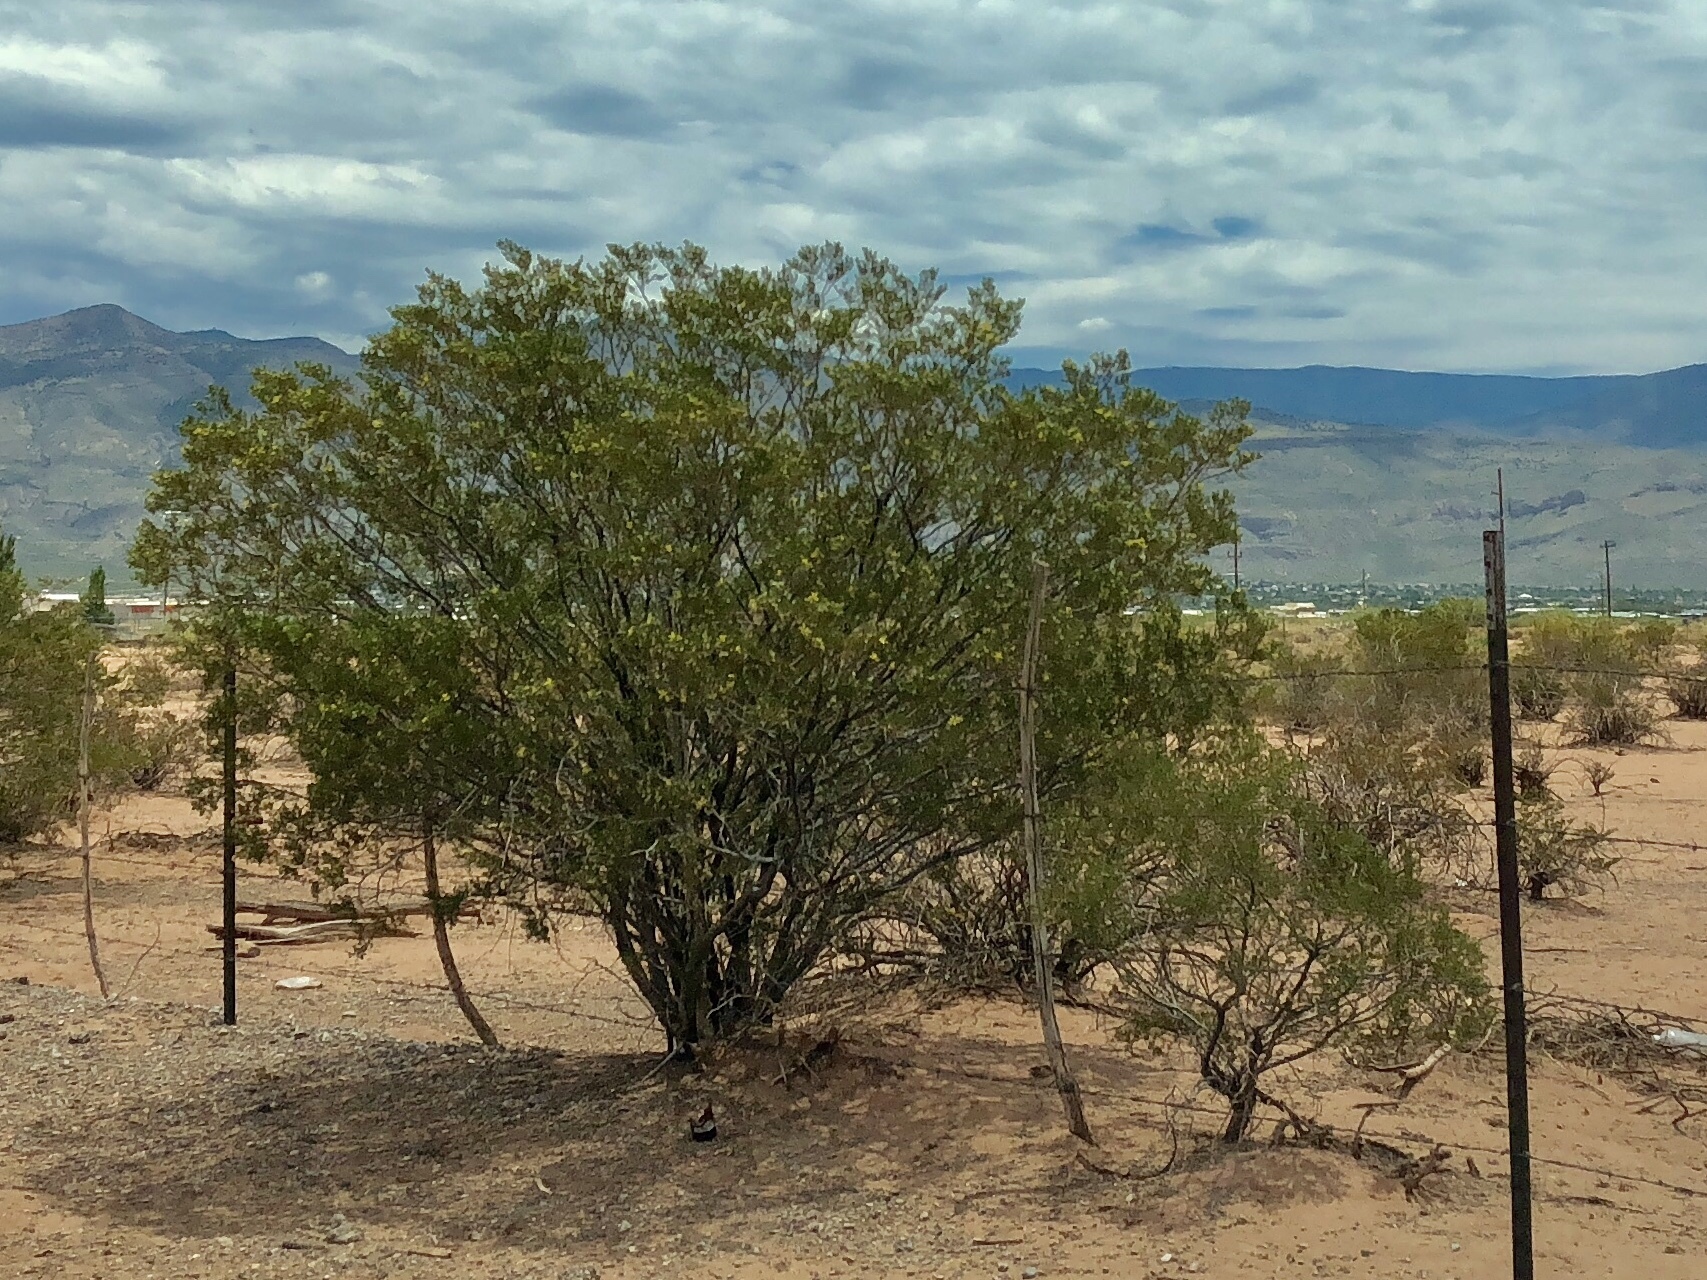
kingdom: Plantae
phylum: Tracheophyta
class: Magnoliopsida
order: Zygophyllales
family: Zygophyllaceae
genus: Larrea
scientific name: Larrea tridentata
